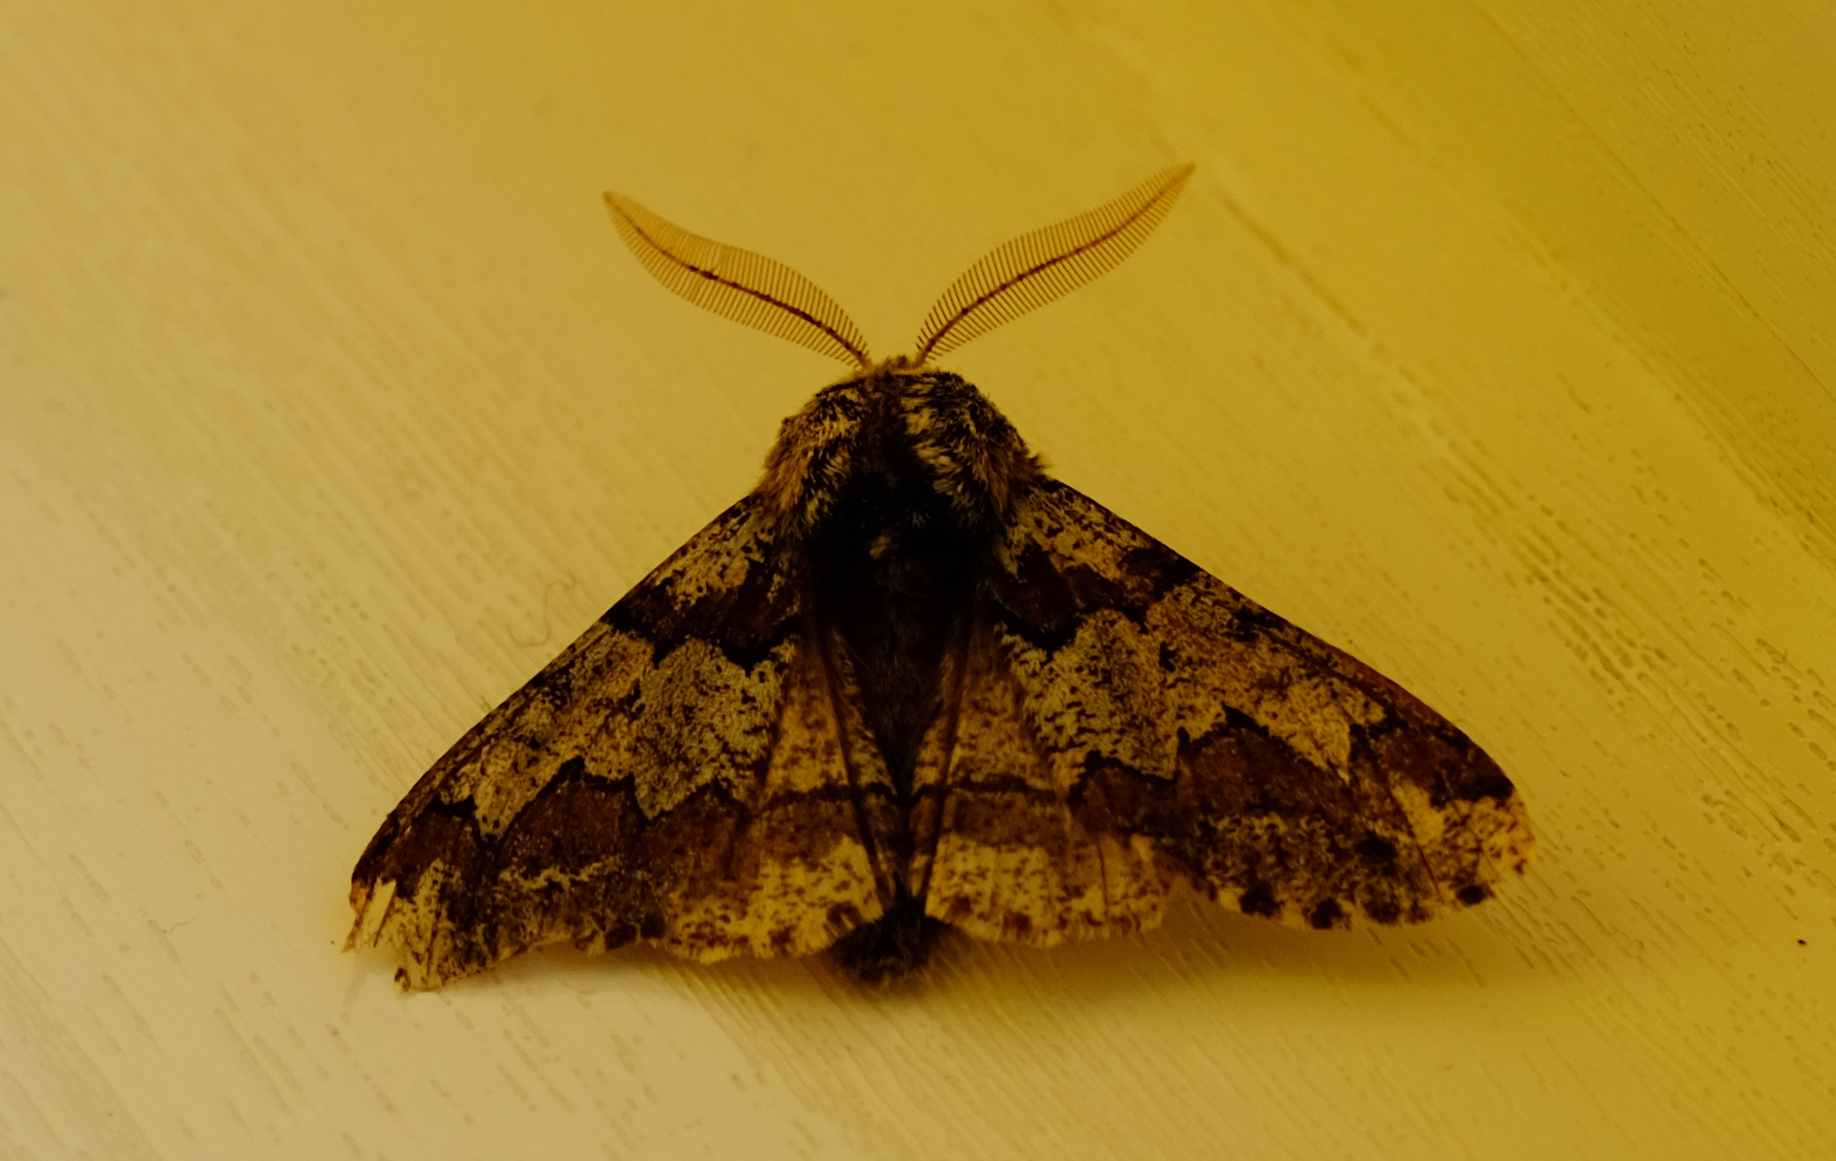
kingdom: Animalia
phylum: Arthropoda
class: Insecta
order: Lepidoptera
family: Geometridae
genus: Biston
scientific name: Biston strataria
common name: Oak beauty
